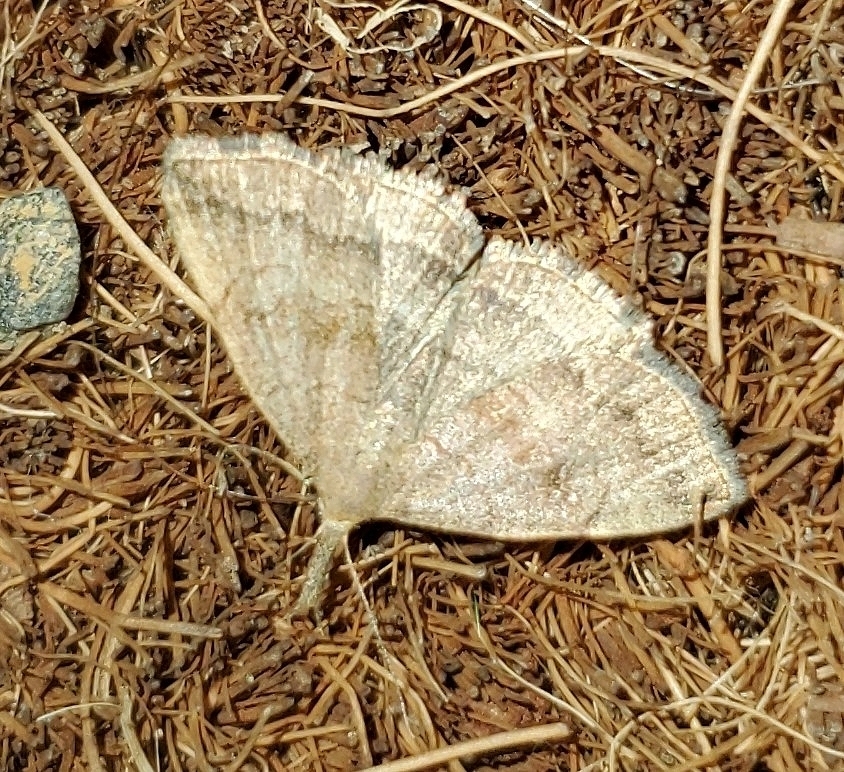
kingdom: Animalia
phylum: Arthropoda
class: Insecta
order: Lepidoptera
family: Erebidae
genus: Phalaenostola
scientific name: Phalaenostola metonalis
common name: Pale phalaenostola moth
